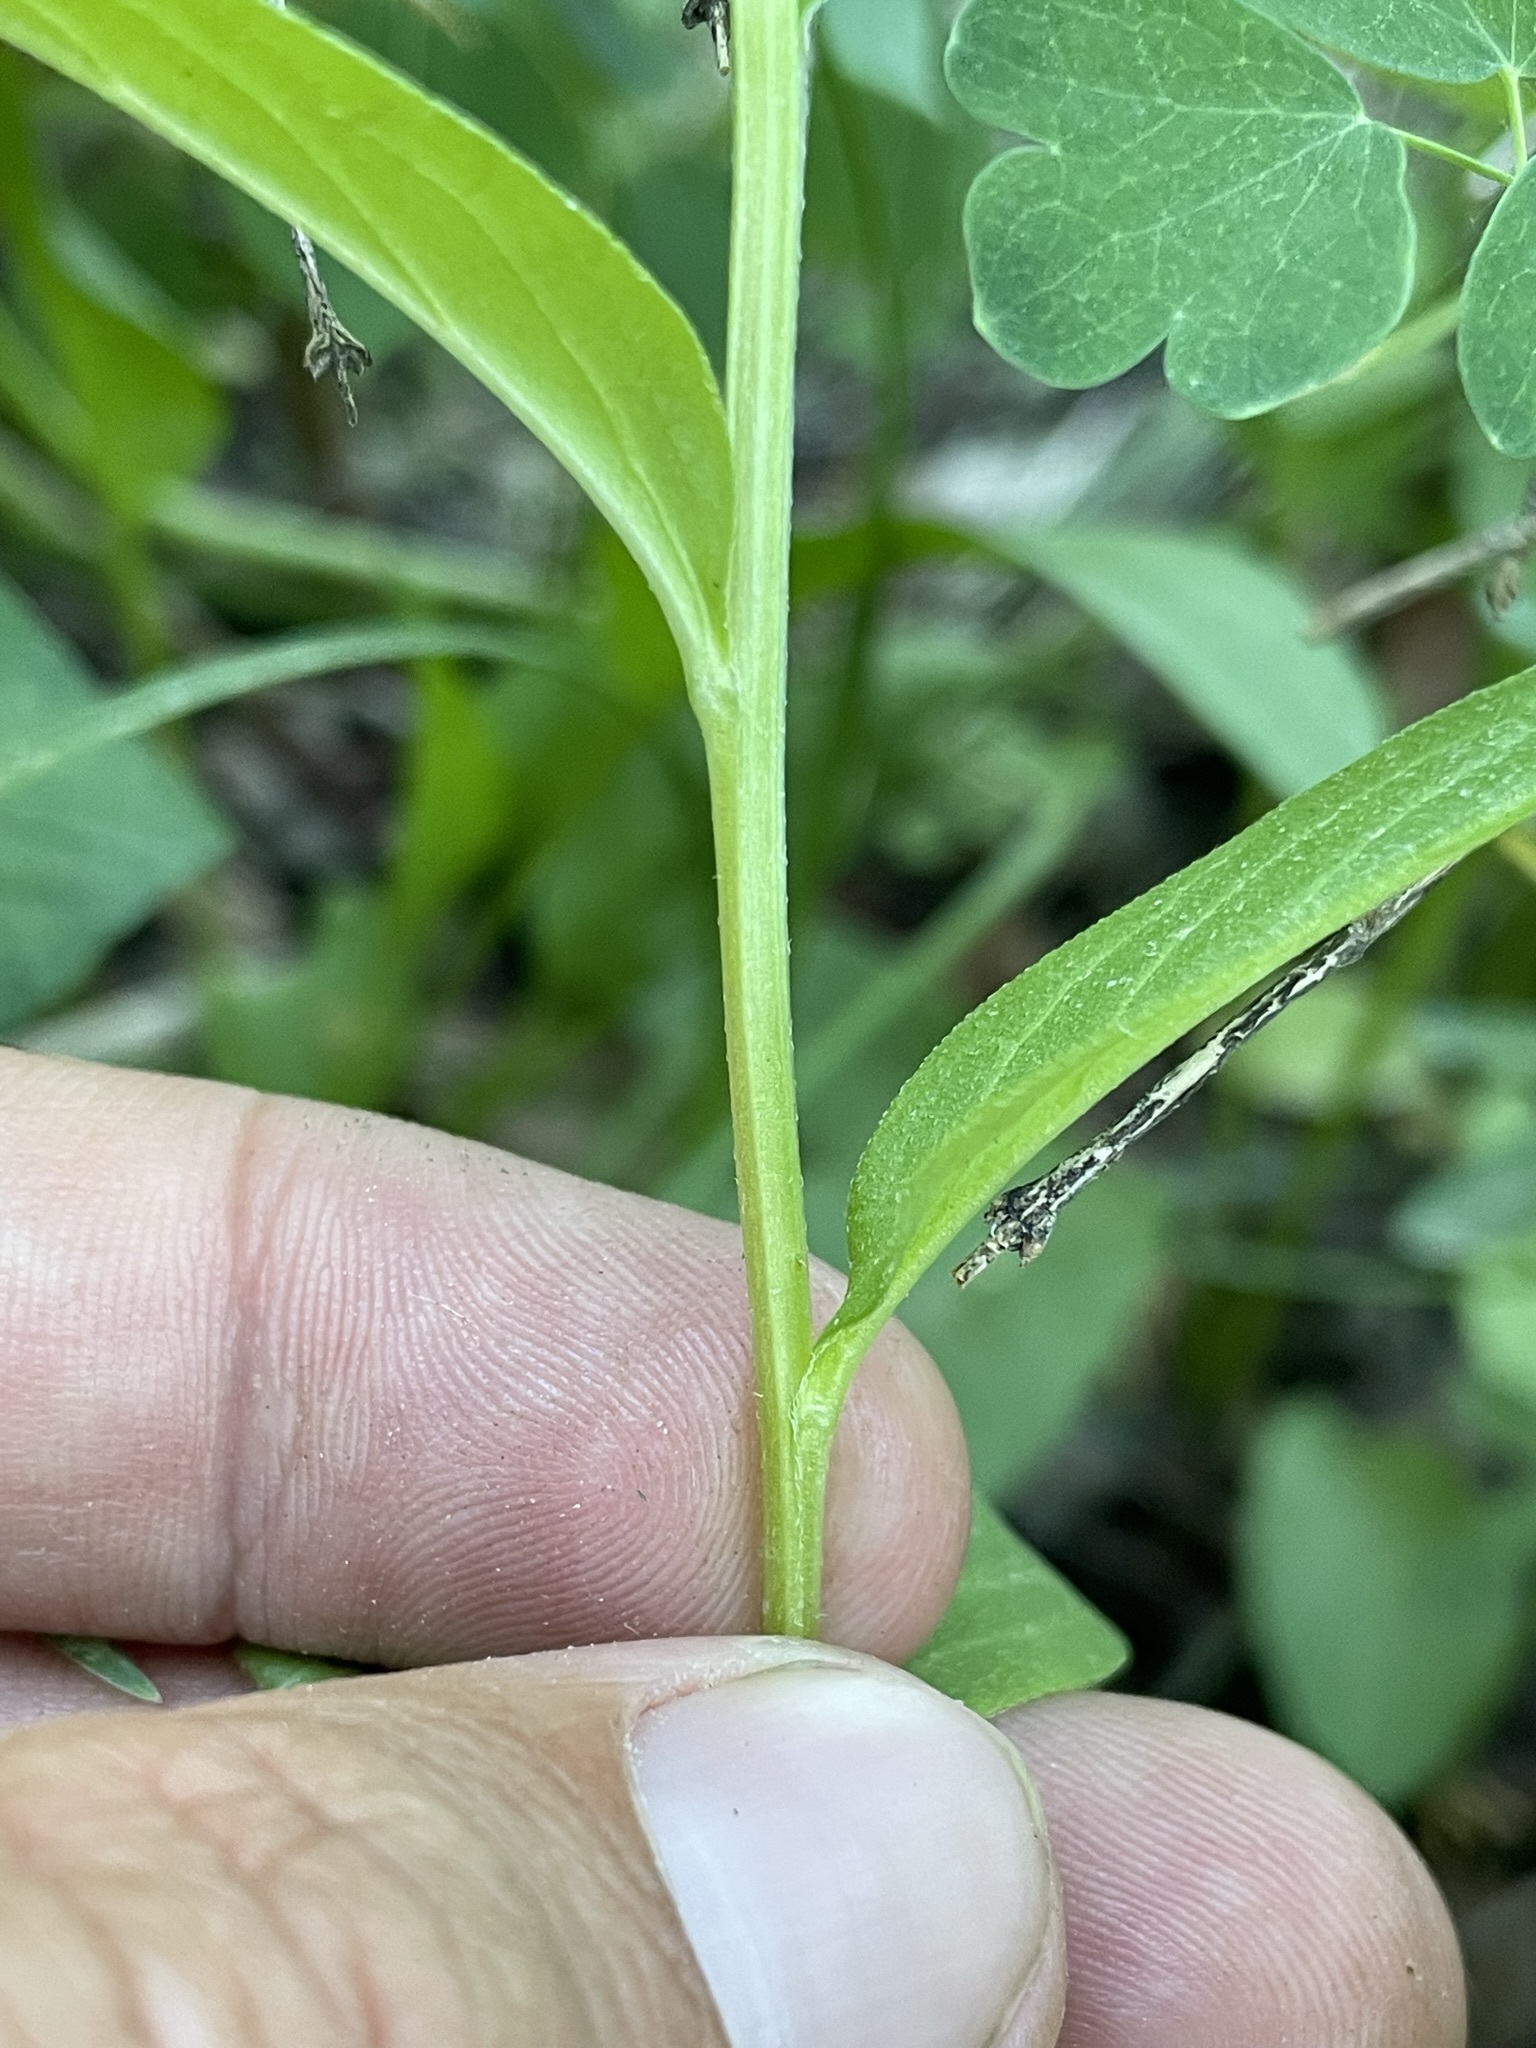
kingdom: Plantae
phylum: Tracheophyta
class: Magnoliopsida
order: Boraginales
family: Boraginaceae
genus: Mertensia
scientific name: Mertensia franciscana
